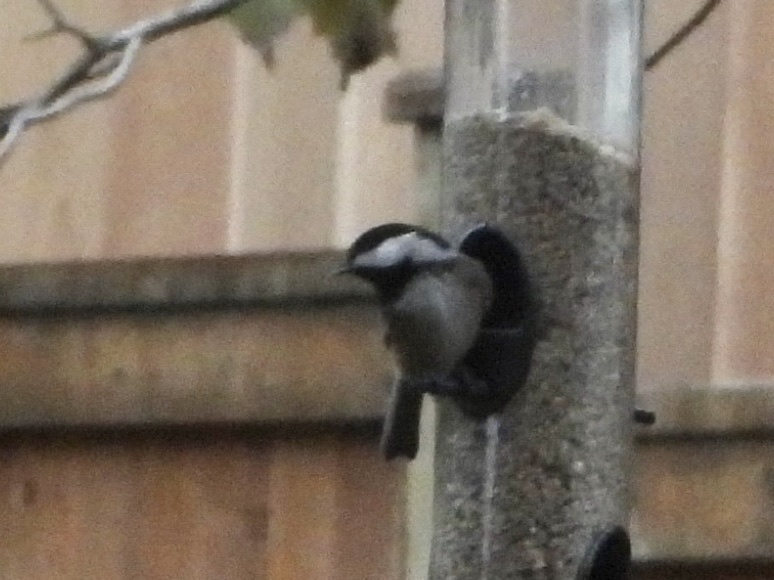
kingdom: Animalia
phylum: Chordata
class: Aves
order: Passeriformes
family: Paridae
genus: Poecile
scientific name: Poecile atricapillus
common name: Black-capped chickadee
